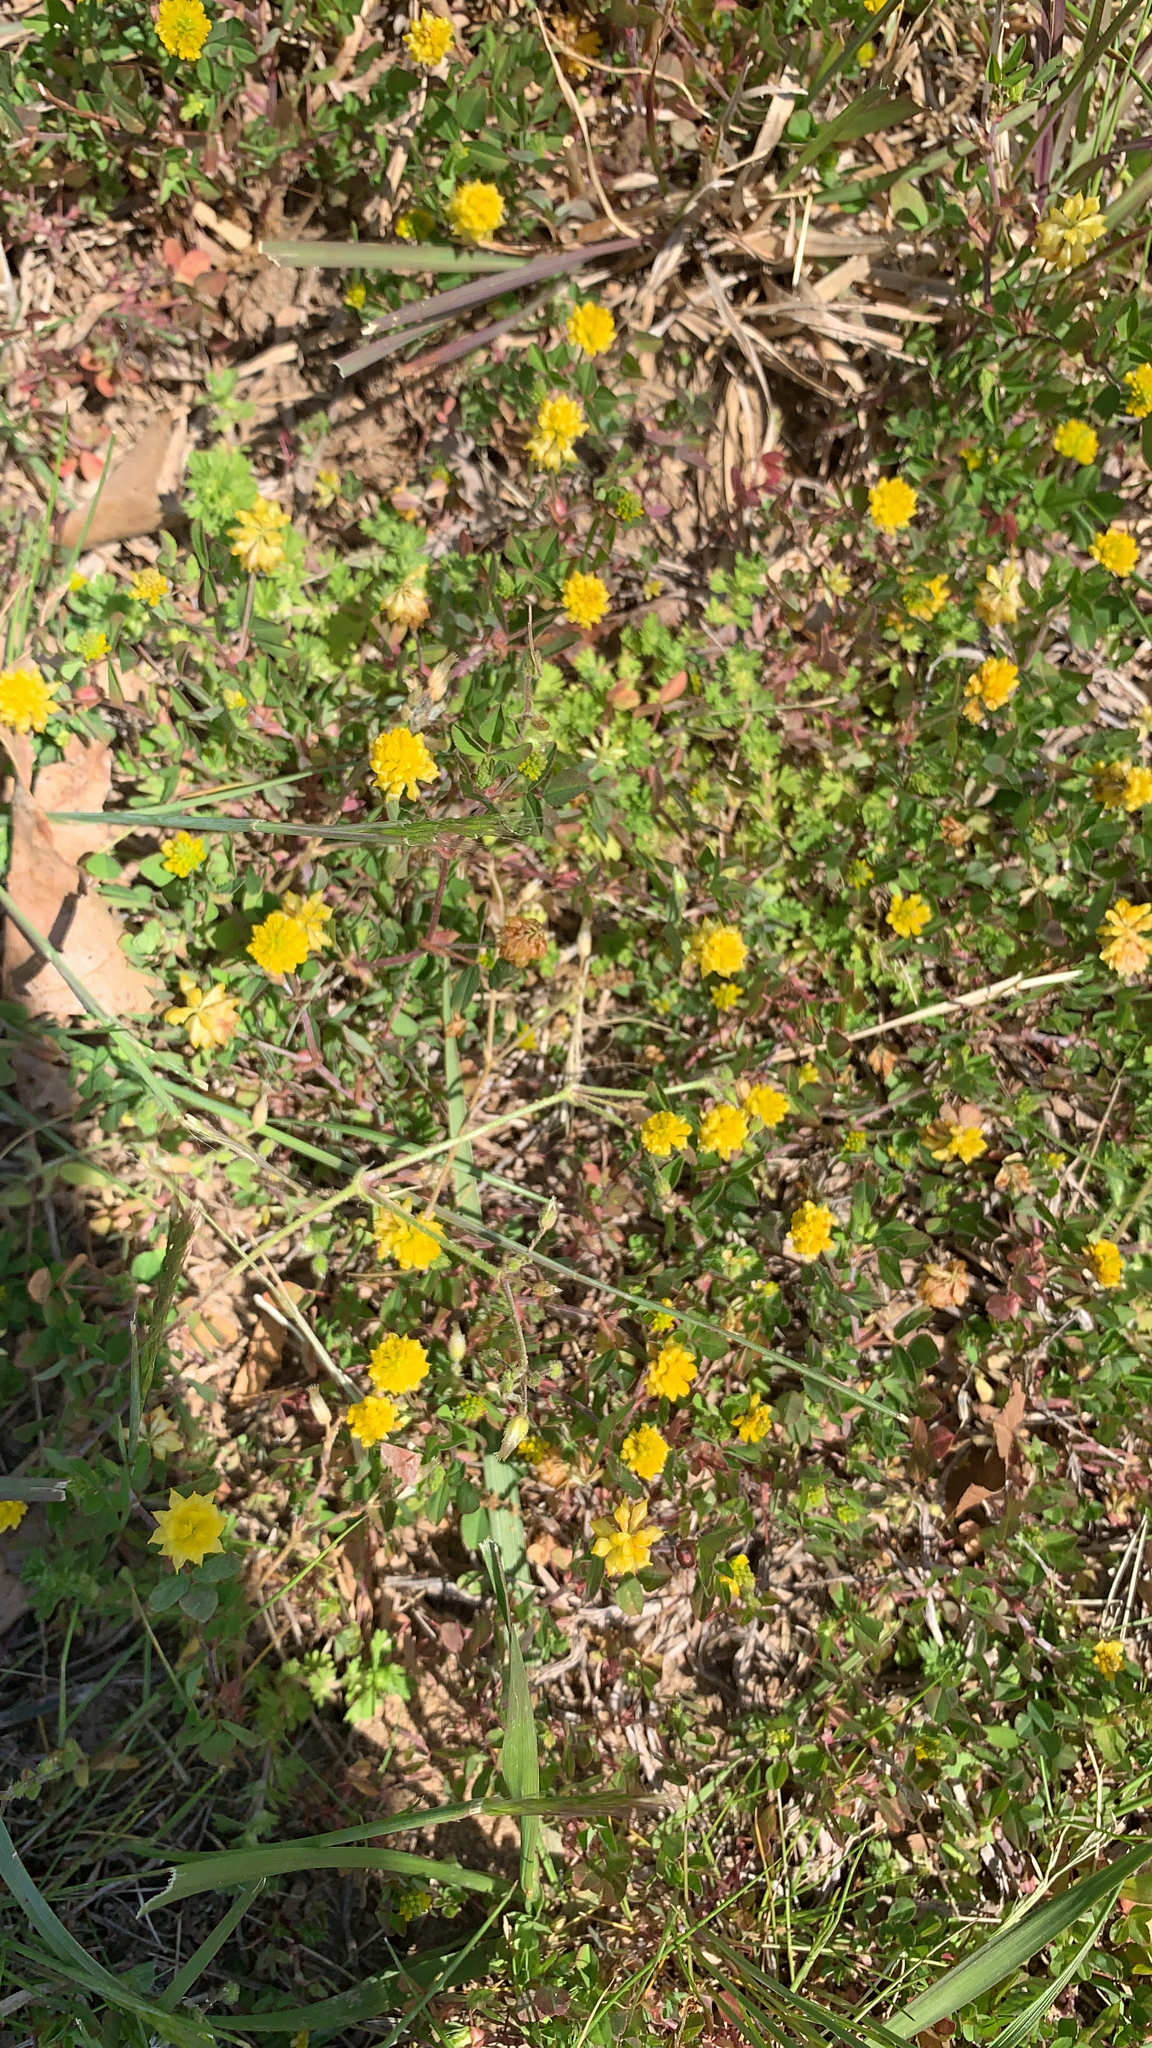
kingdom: Plantae
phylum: Tracheophyta
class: Magnoliopsida
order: Fabales
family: Fabaceae
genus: Trifolium
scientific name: Trifolium dubium
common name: Suckling clover
